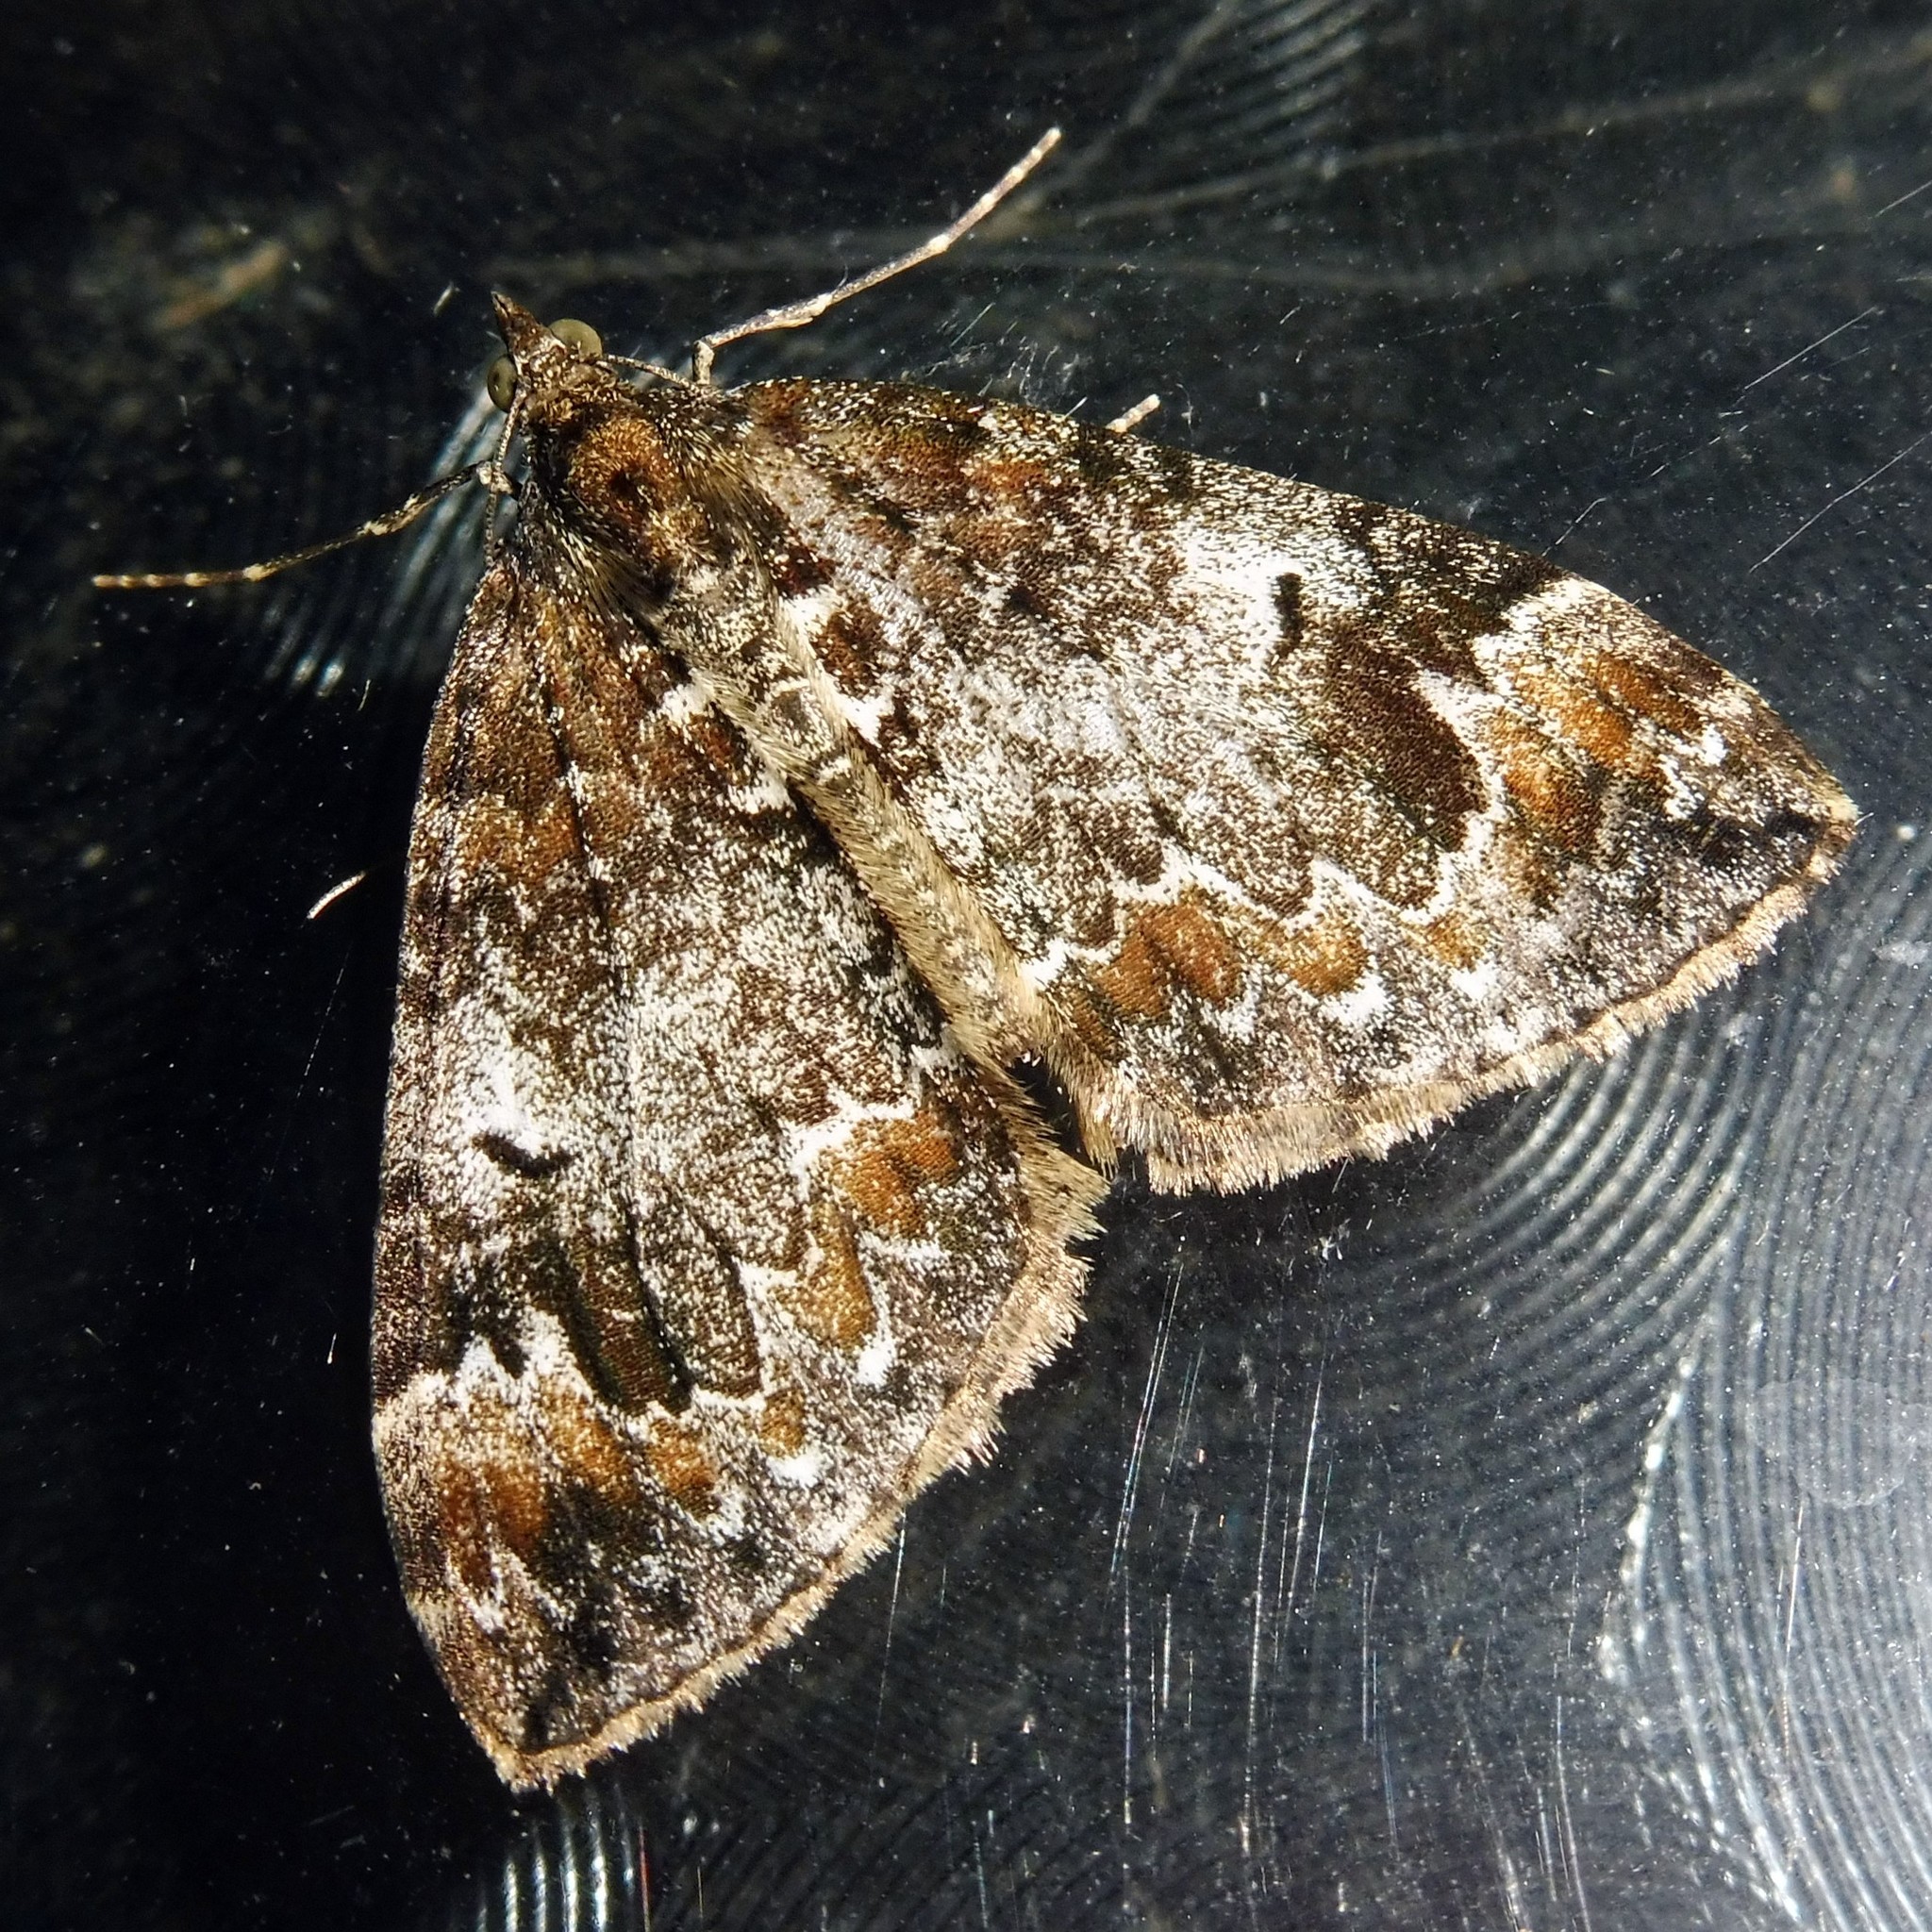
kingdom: Animalia
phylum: Arthropoda
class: Insecta
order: Lepidoptera
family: Geometridae
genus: Dysstroma
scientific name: Dysstroma truncata
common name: Common marbled carpet
